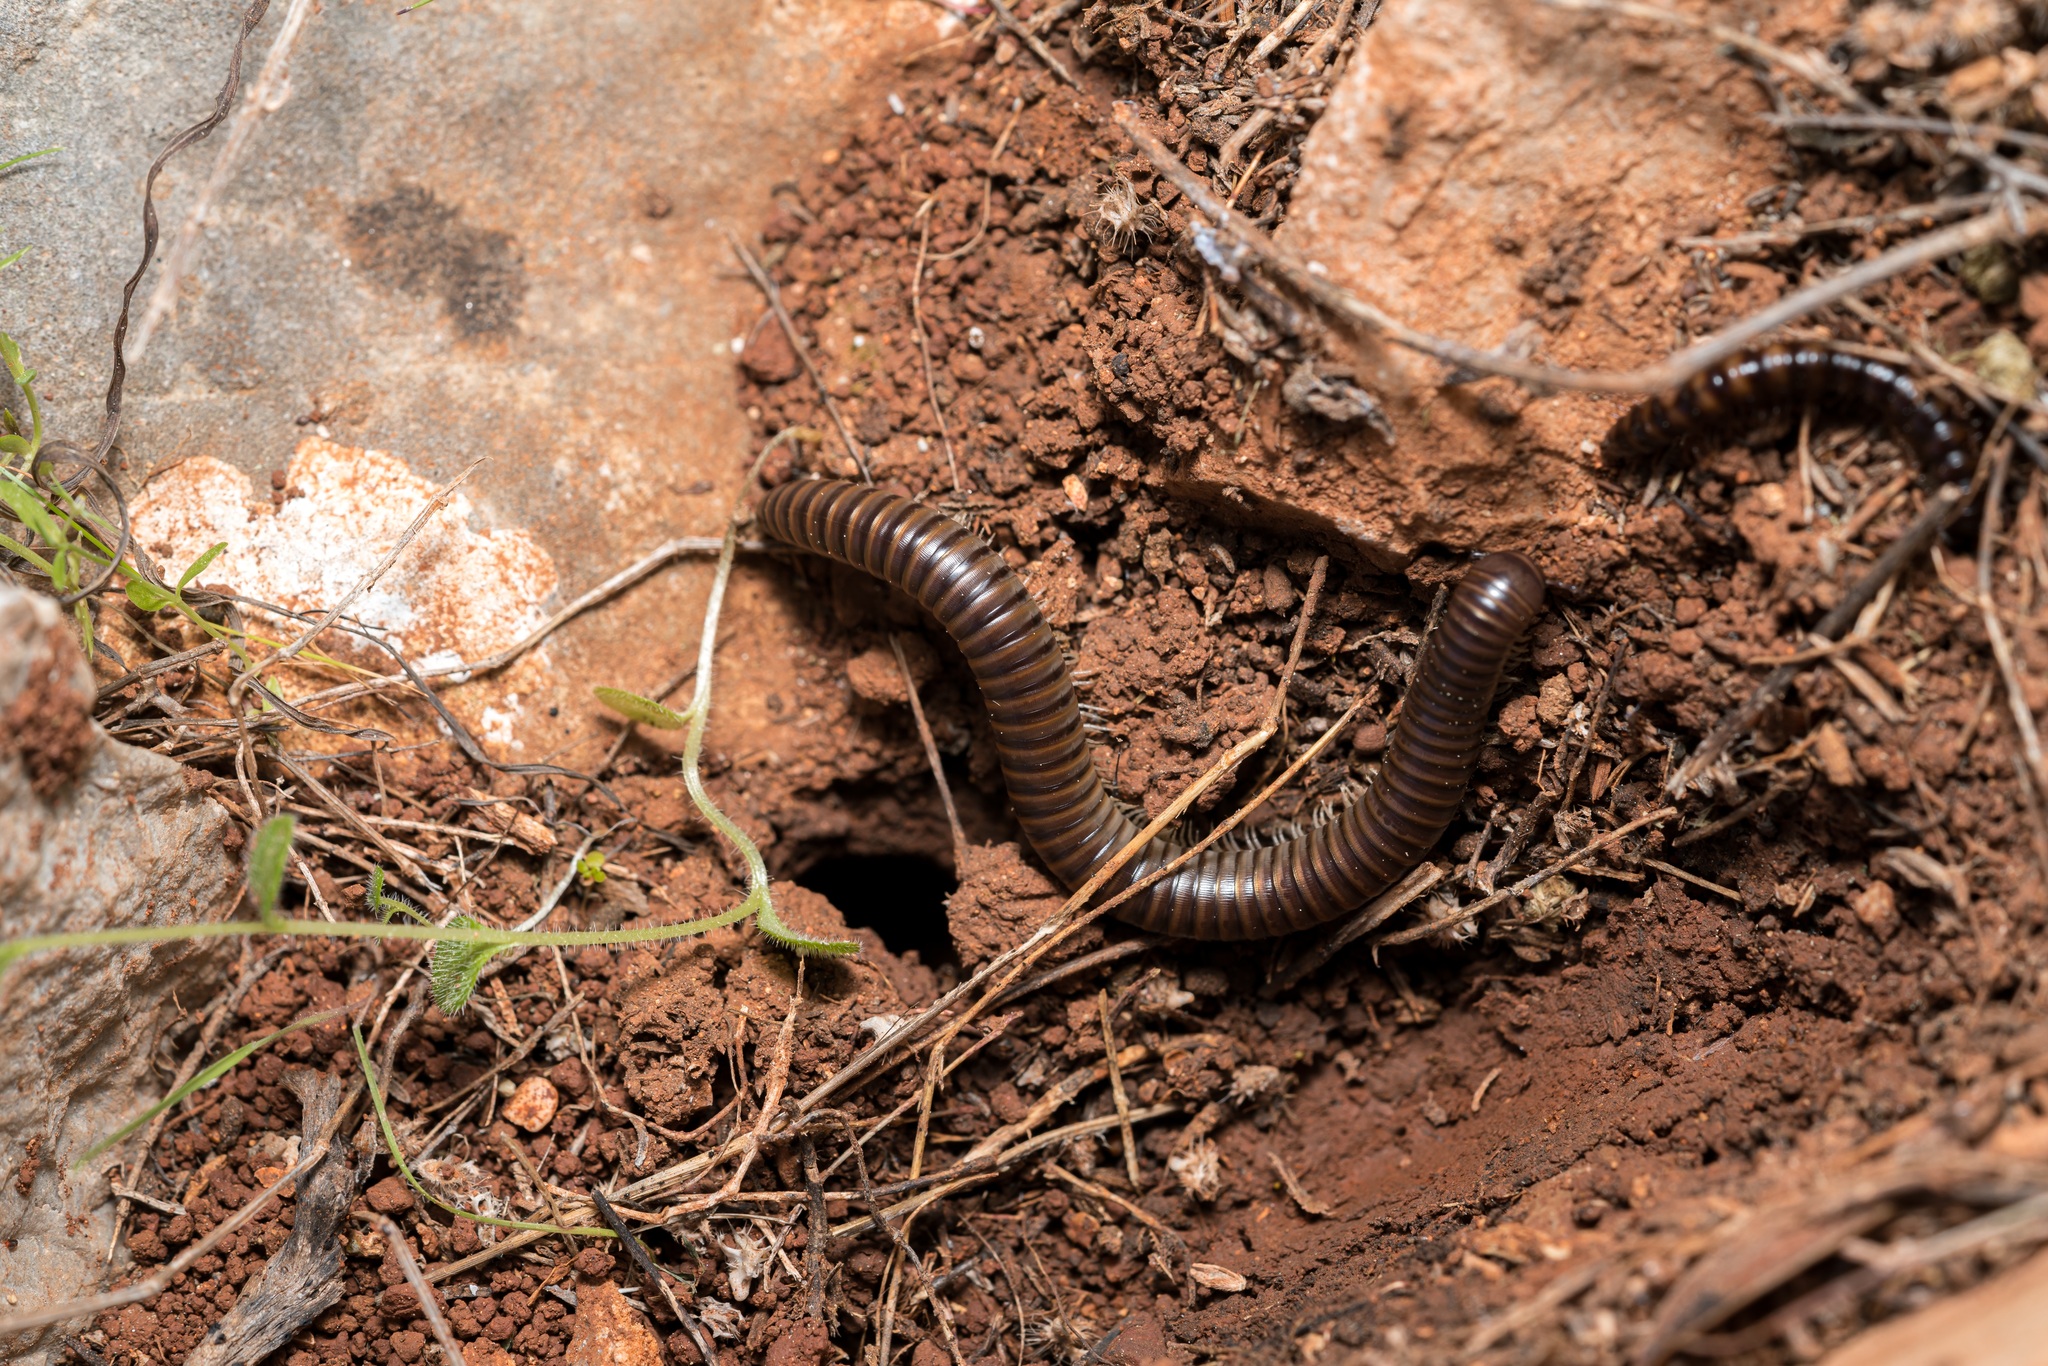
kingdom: Animalia
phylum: Arthropoda
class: Diplopoda
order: Julida
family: Julidae
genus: Pachyiulus
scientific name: Pachyiulus asiaeminoris
